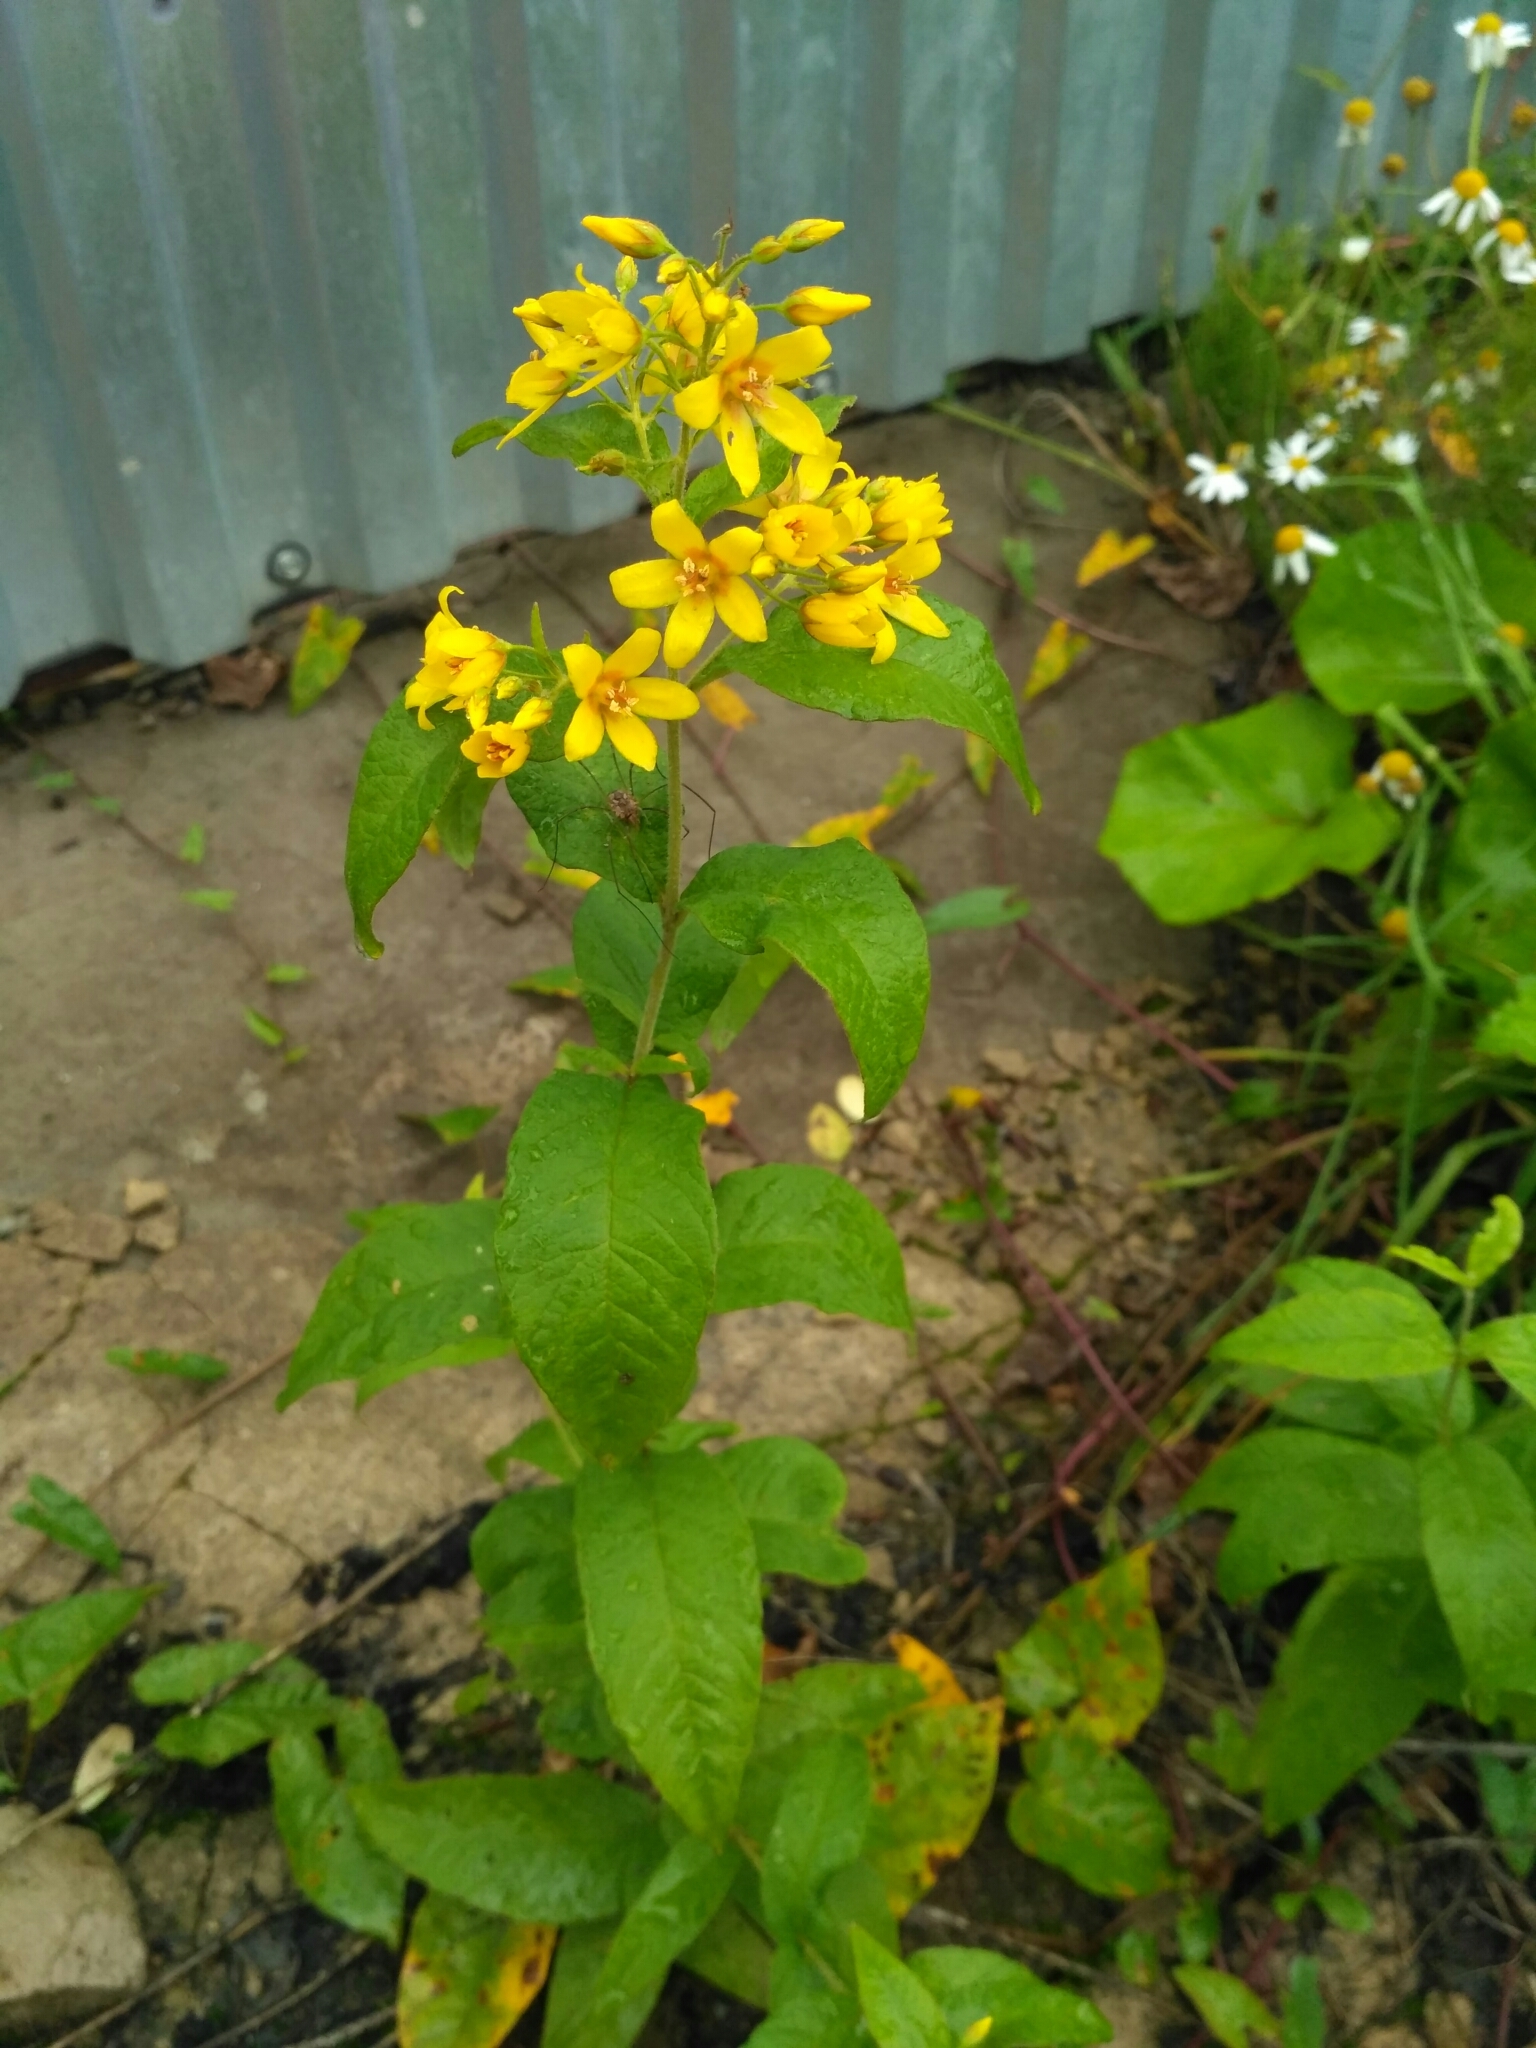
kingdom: Plantae
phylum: Tracheophyta
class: Magnoliopsida
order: Ericales
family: Primulaceae
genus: Lysimachia
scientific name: Lysimachia vulgaris
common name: Yellow loosestrife
